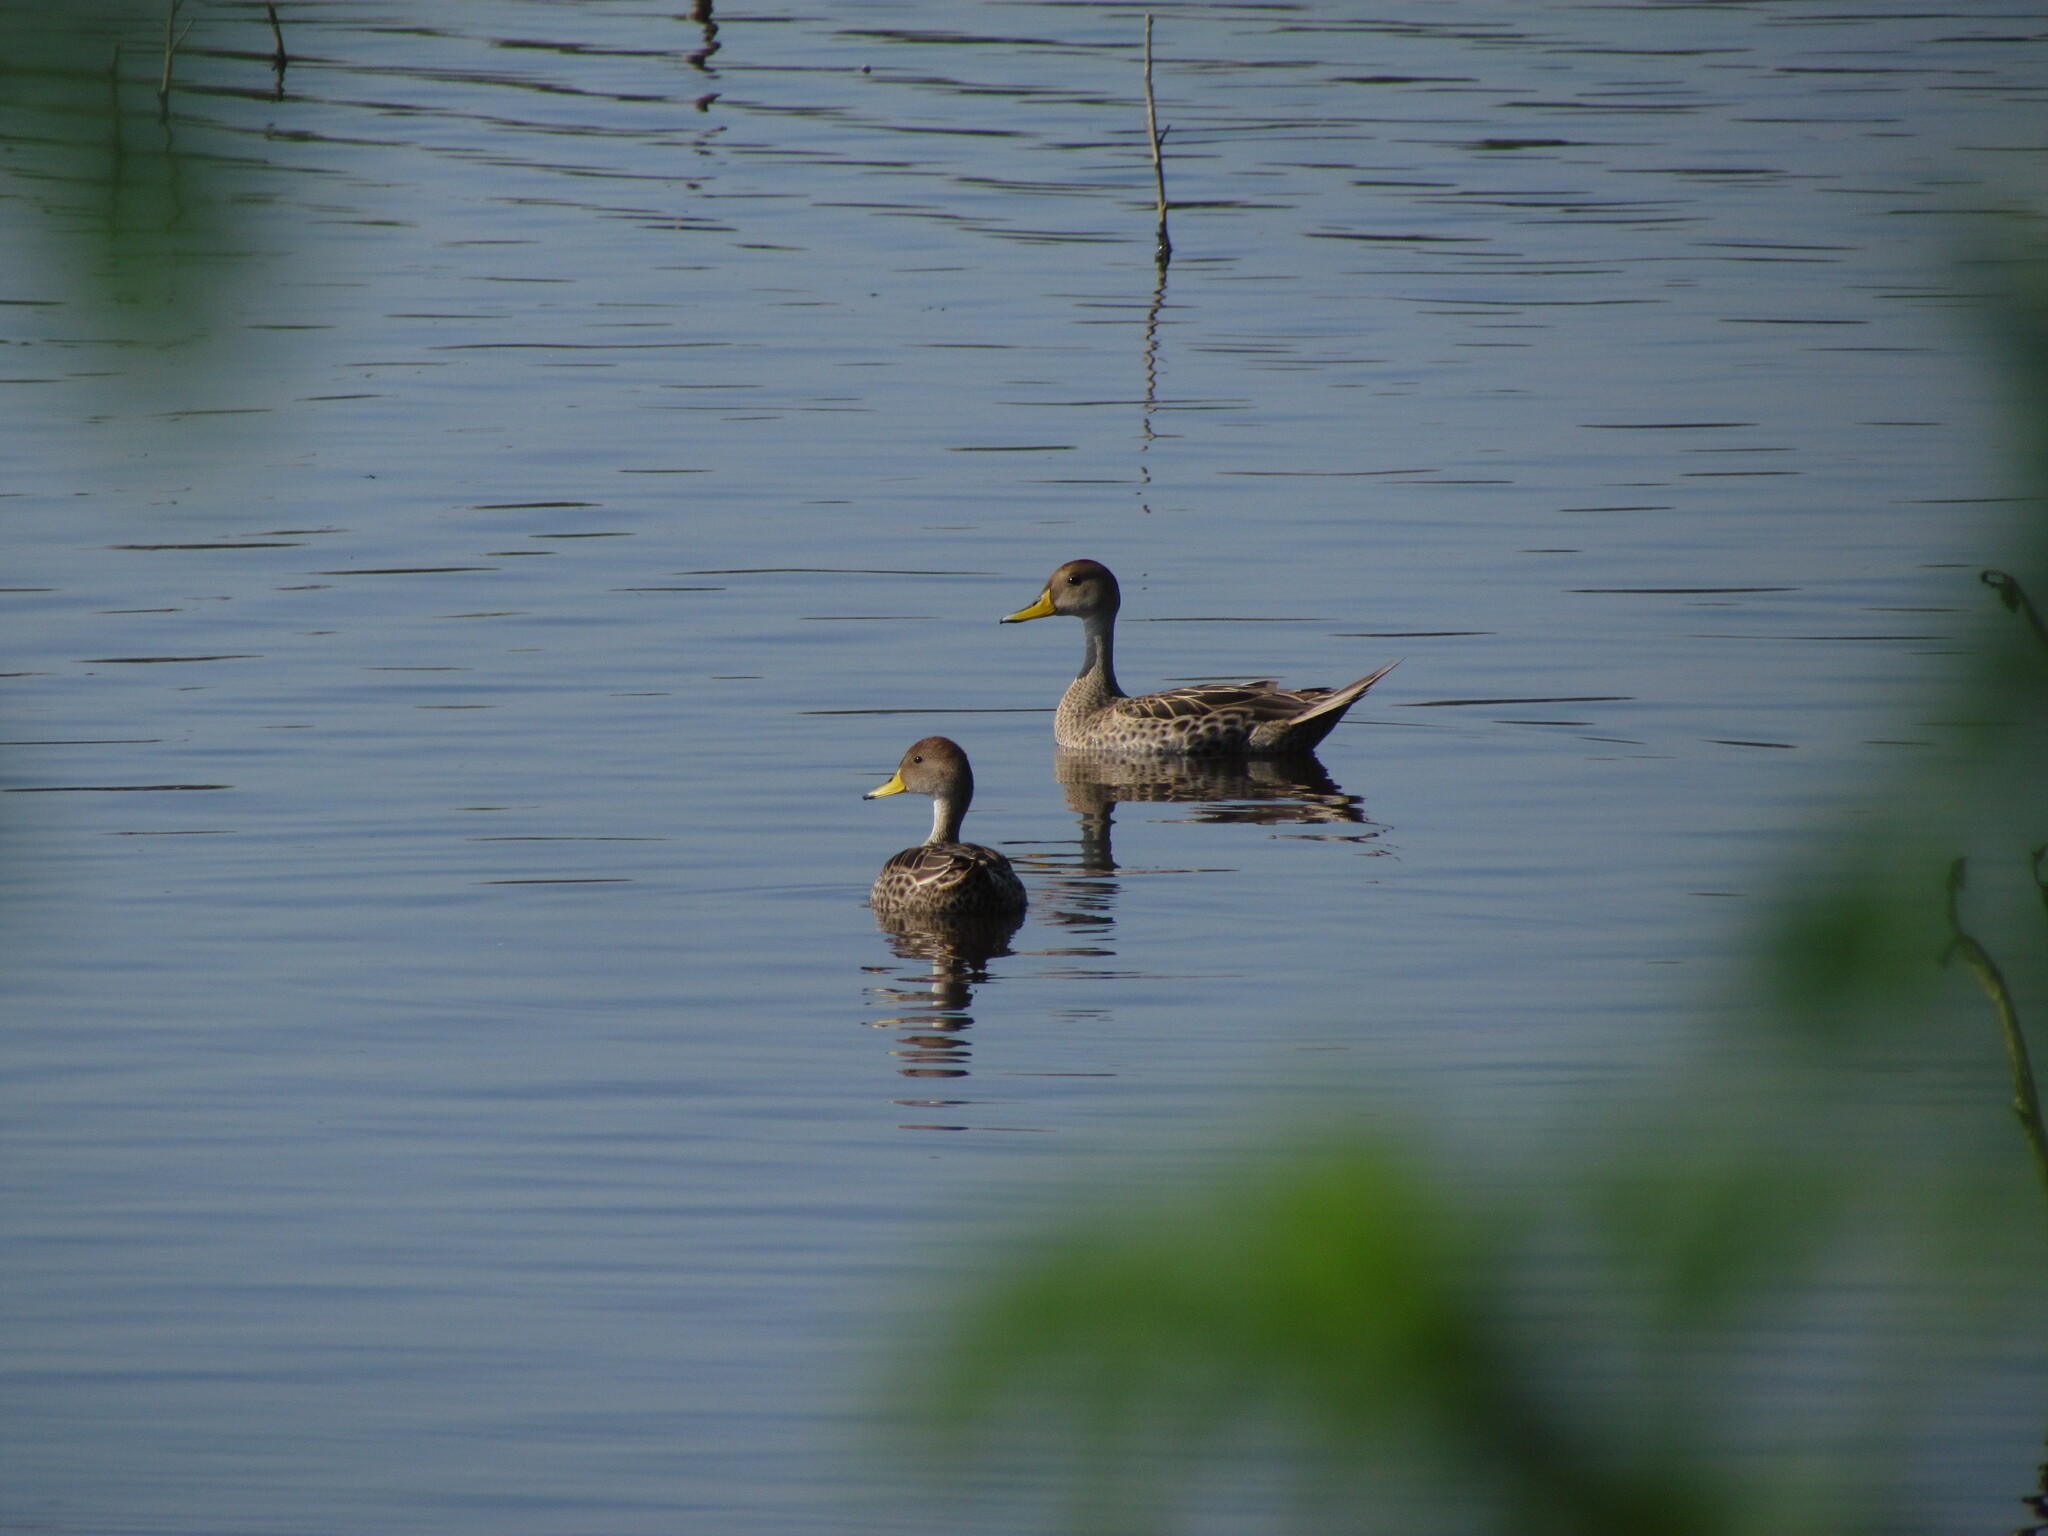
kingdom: Animalia
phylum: Chordata
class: Aves
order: Anseriformes
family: Anatidae
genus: Anas
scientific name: Anas georgica
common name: Yellow-billed pintail
